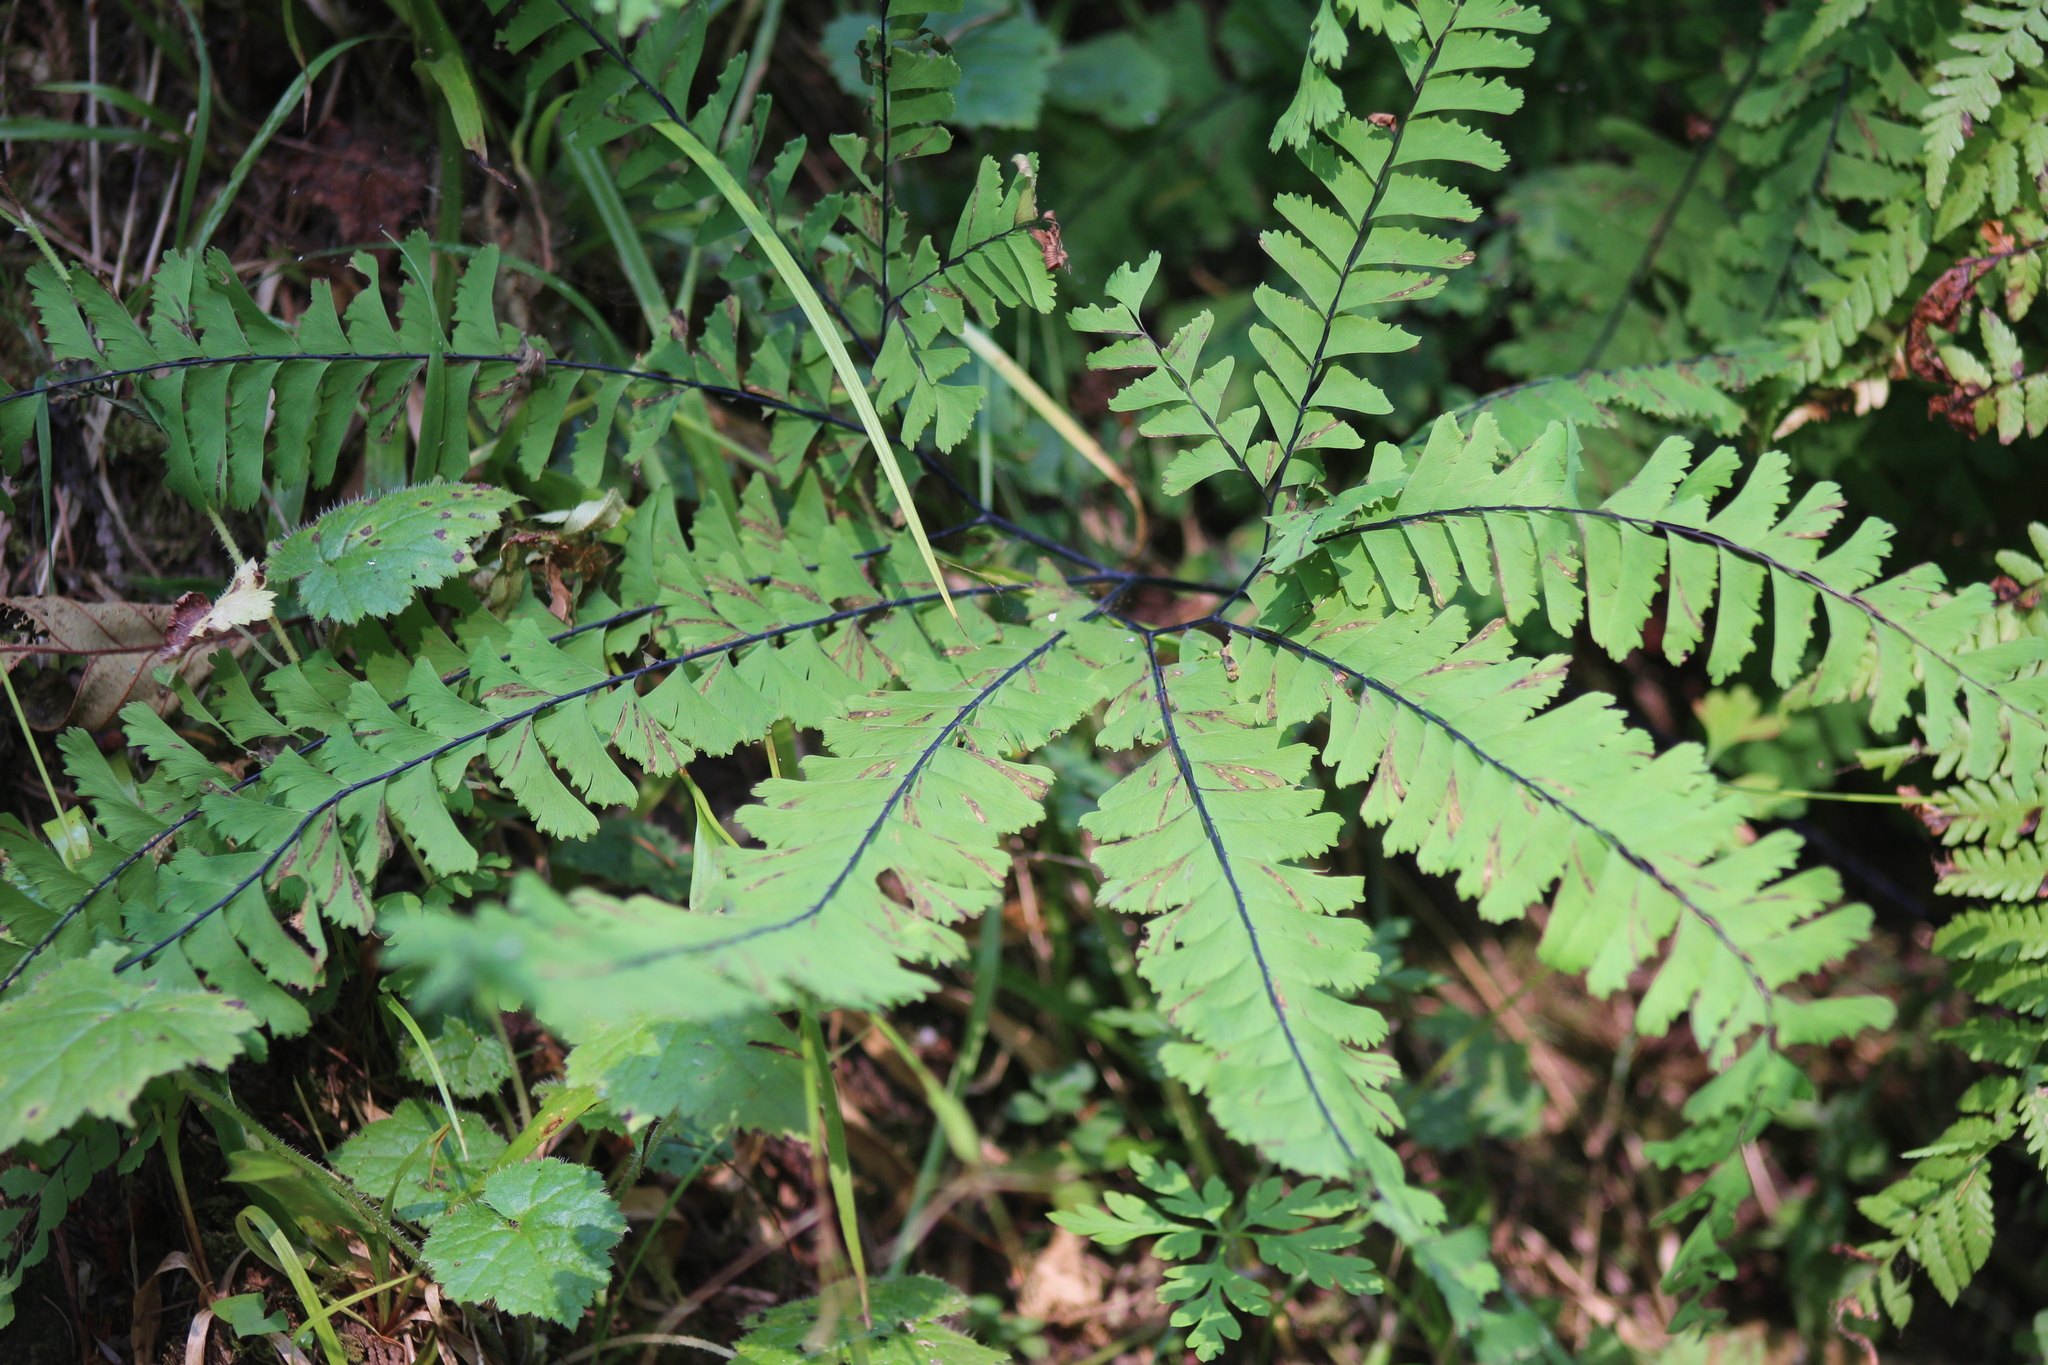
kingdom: Plantae
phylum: Tracheophyta
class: Polypodiopsida
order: Polypodiales
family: Pteridaceae
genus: Adiantum
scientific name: Adiantum aleuticum
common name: Aleutian maidenhair fern
